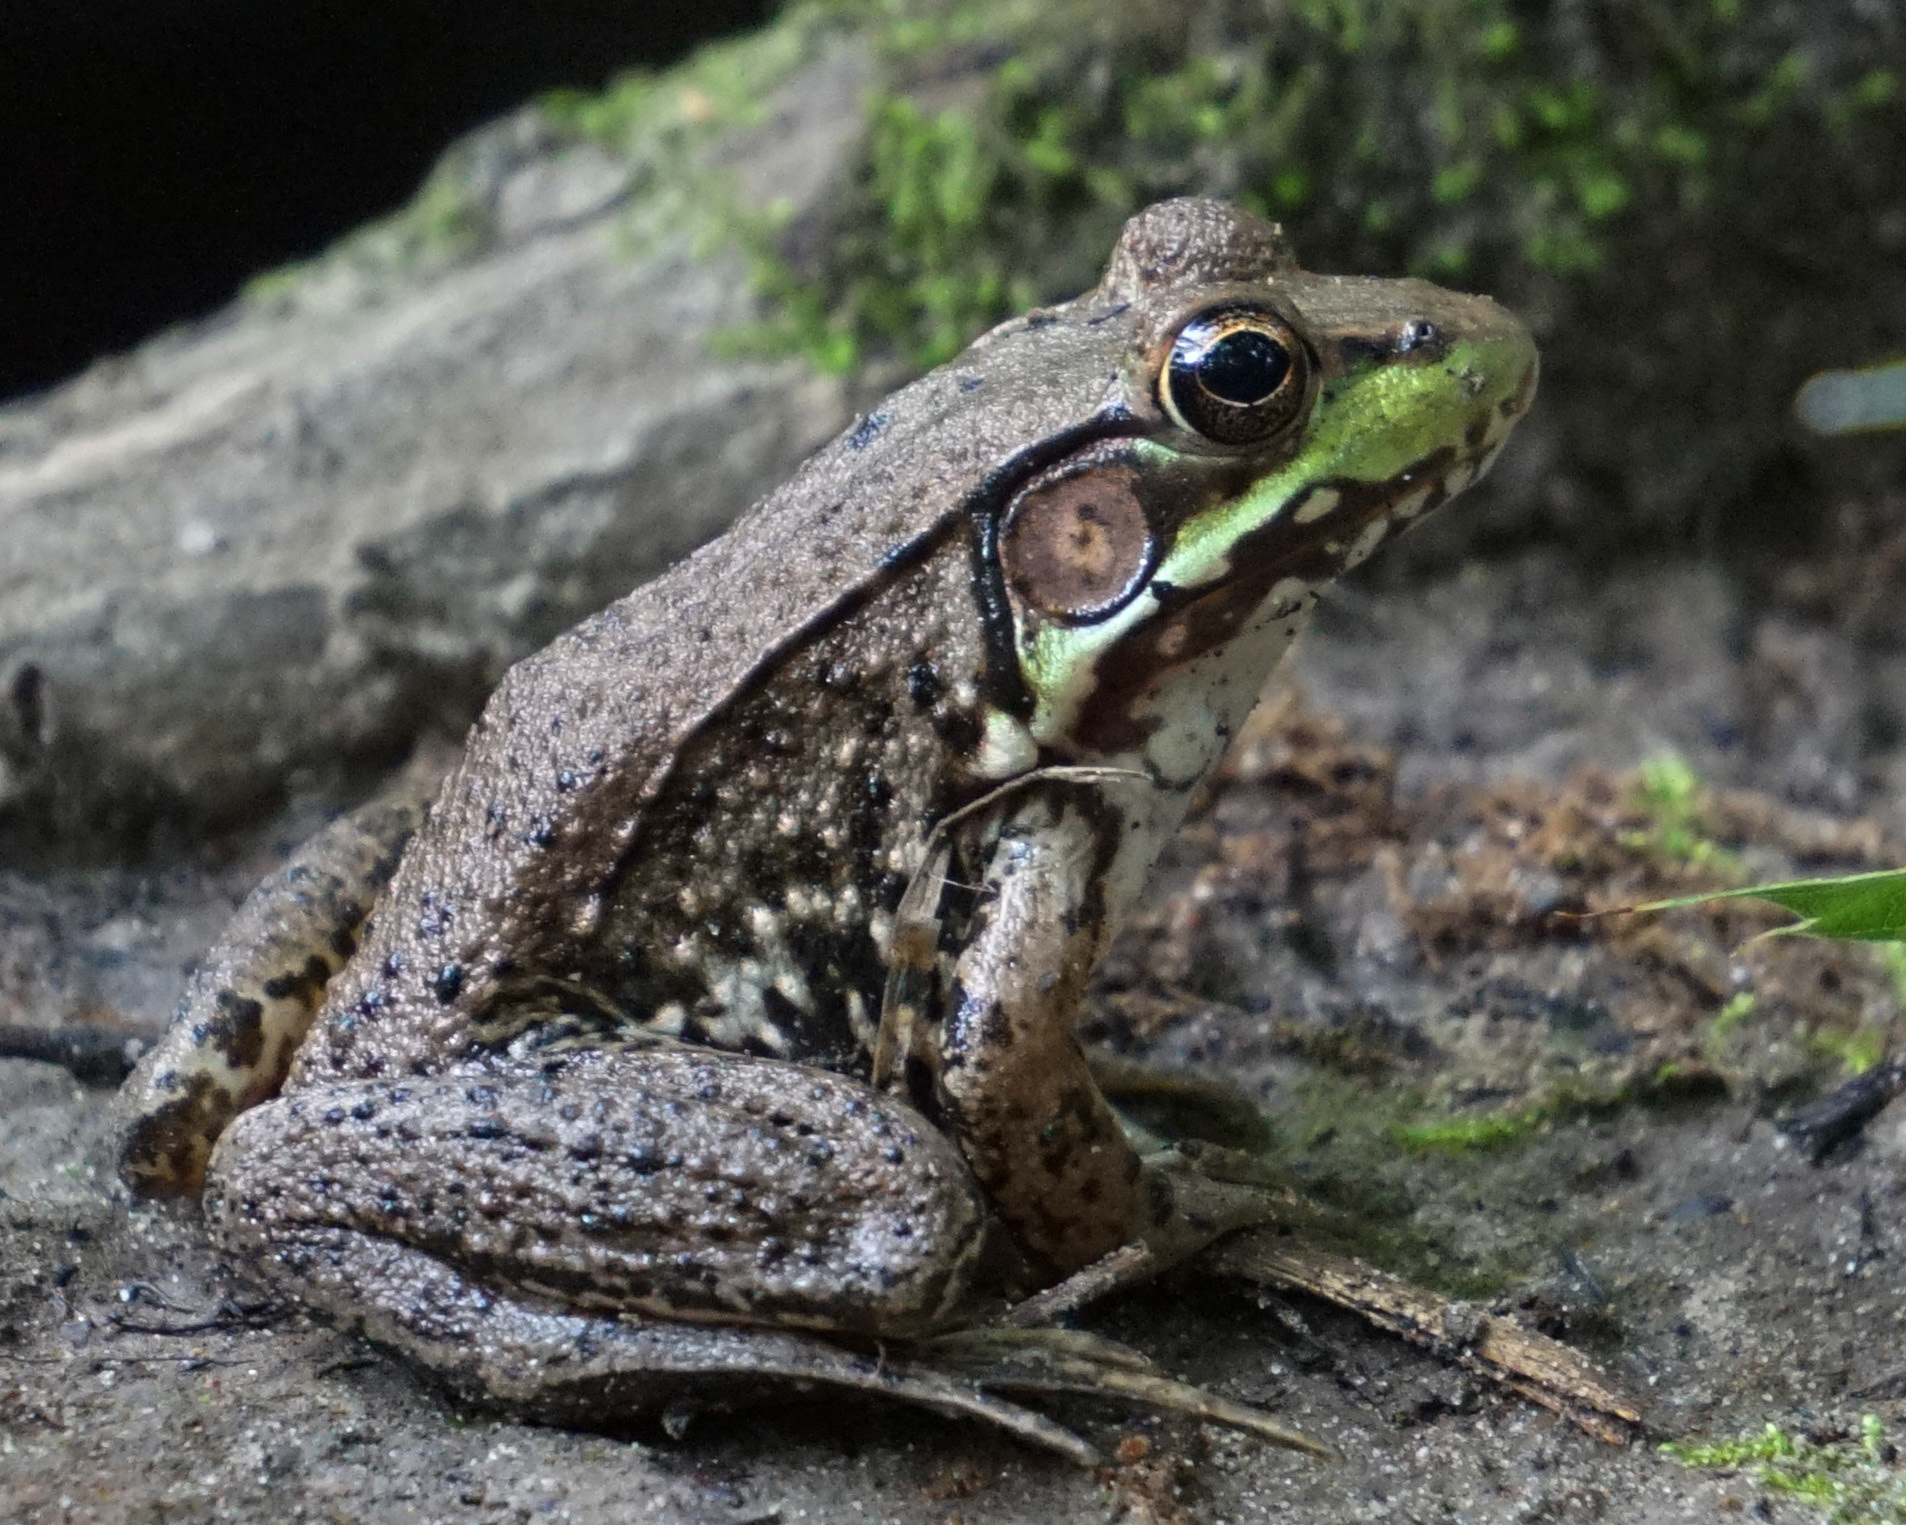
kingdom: Animalia
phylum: Chordata
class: Amphibia
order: Anura
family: Ranidae
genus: Lithobates
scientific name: Lithobates clamitans
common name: Green frog
